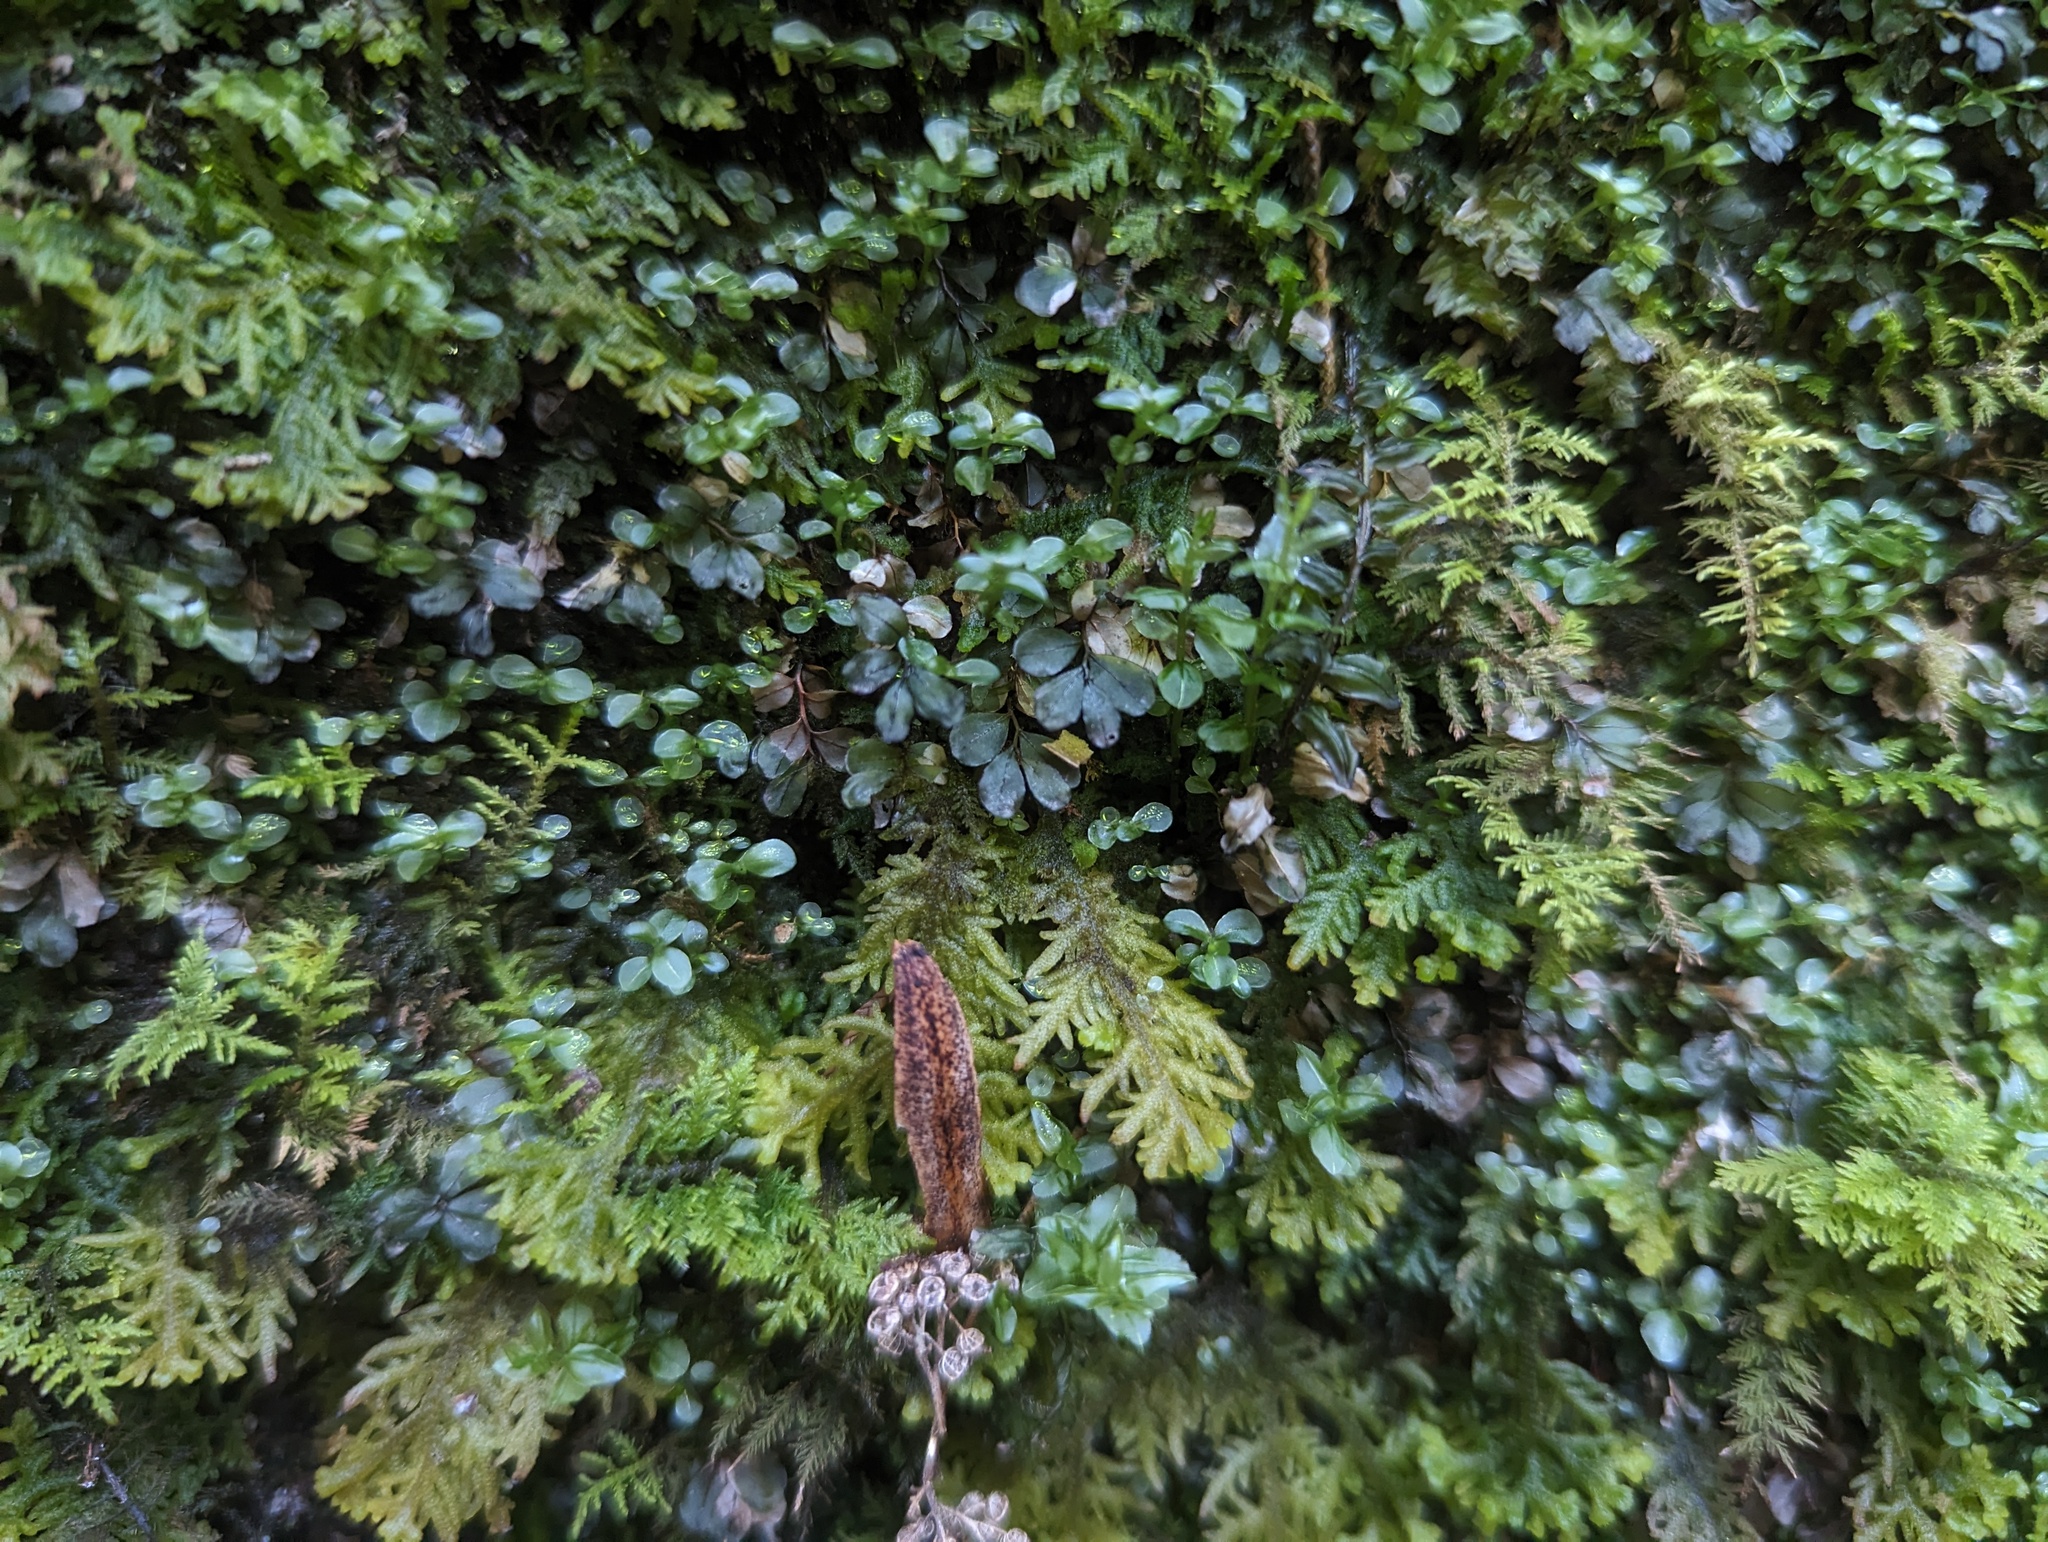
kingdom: Plantae
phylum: Bryophyta
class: Bryopsida
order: Bryales
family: Mniaceae
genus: Rhizomnium
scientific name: Rhizomnium punctatum
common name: Dotted leafy moss
